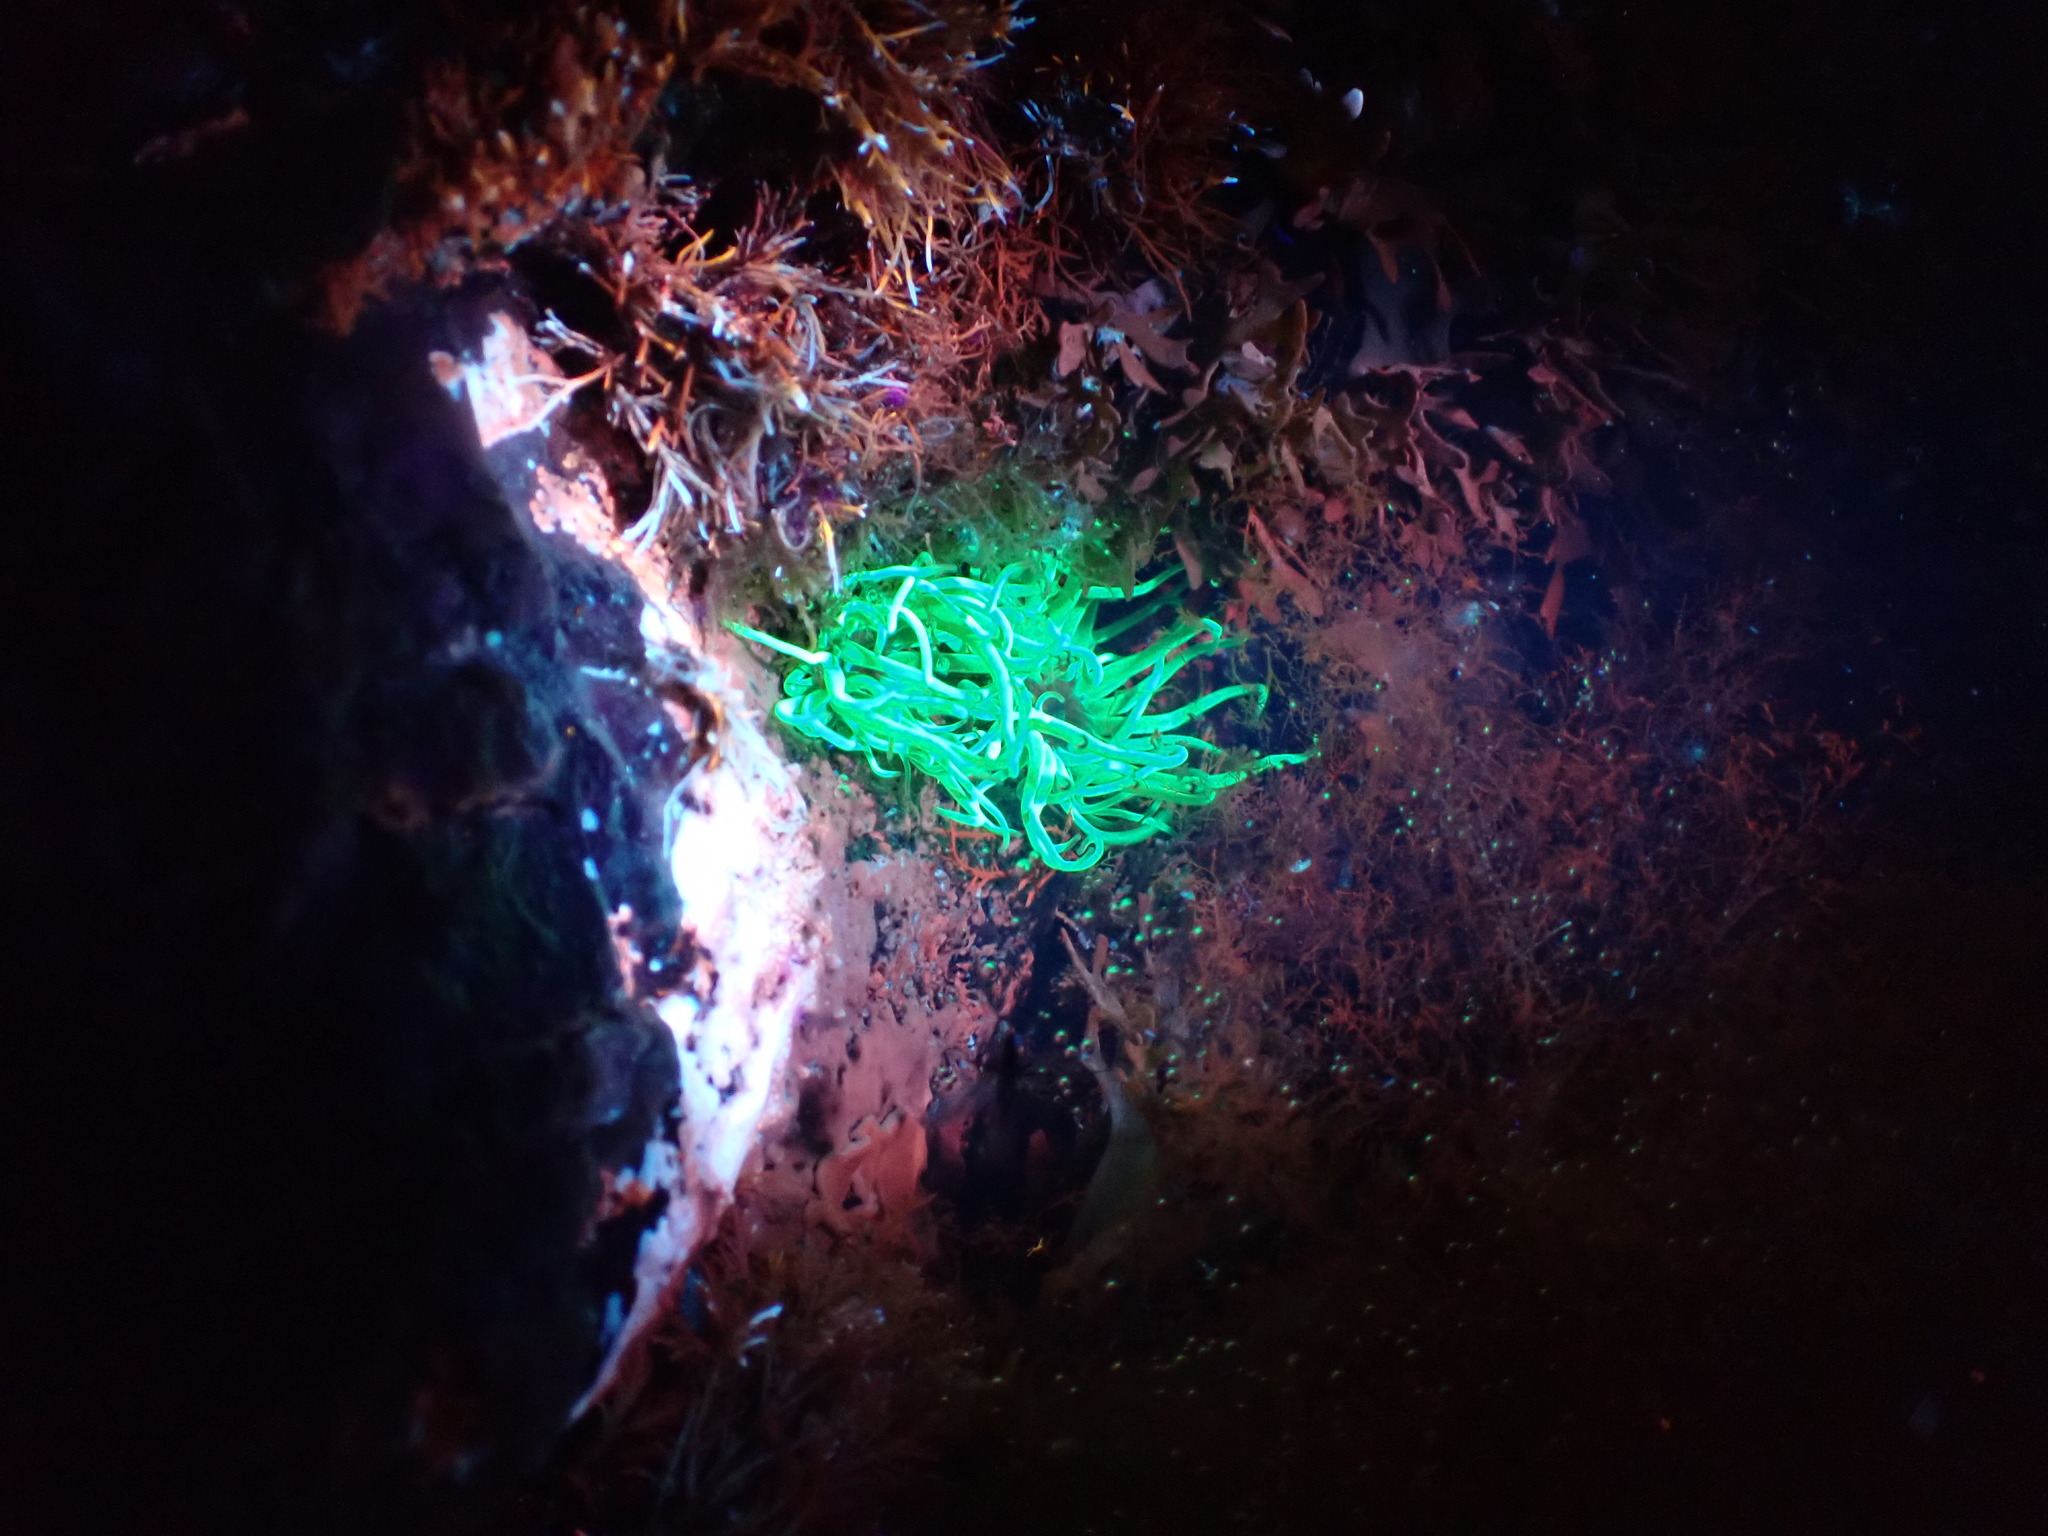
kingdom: Animalia
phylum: Cnidaria
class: Anthozoa
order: Actiniaria
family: Actiniidae
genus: Anemonia
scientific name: Anemonia viridis
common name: Snakelocks anemone
